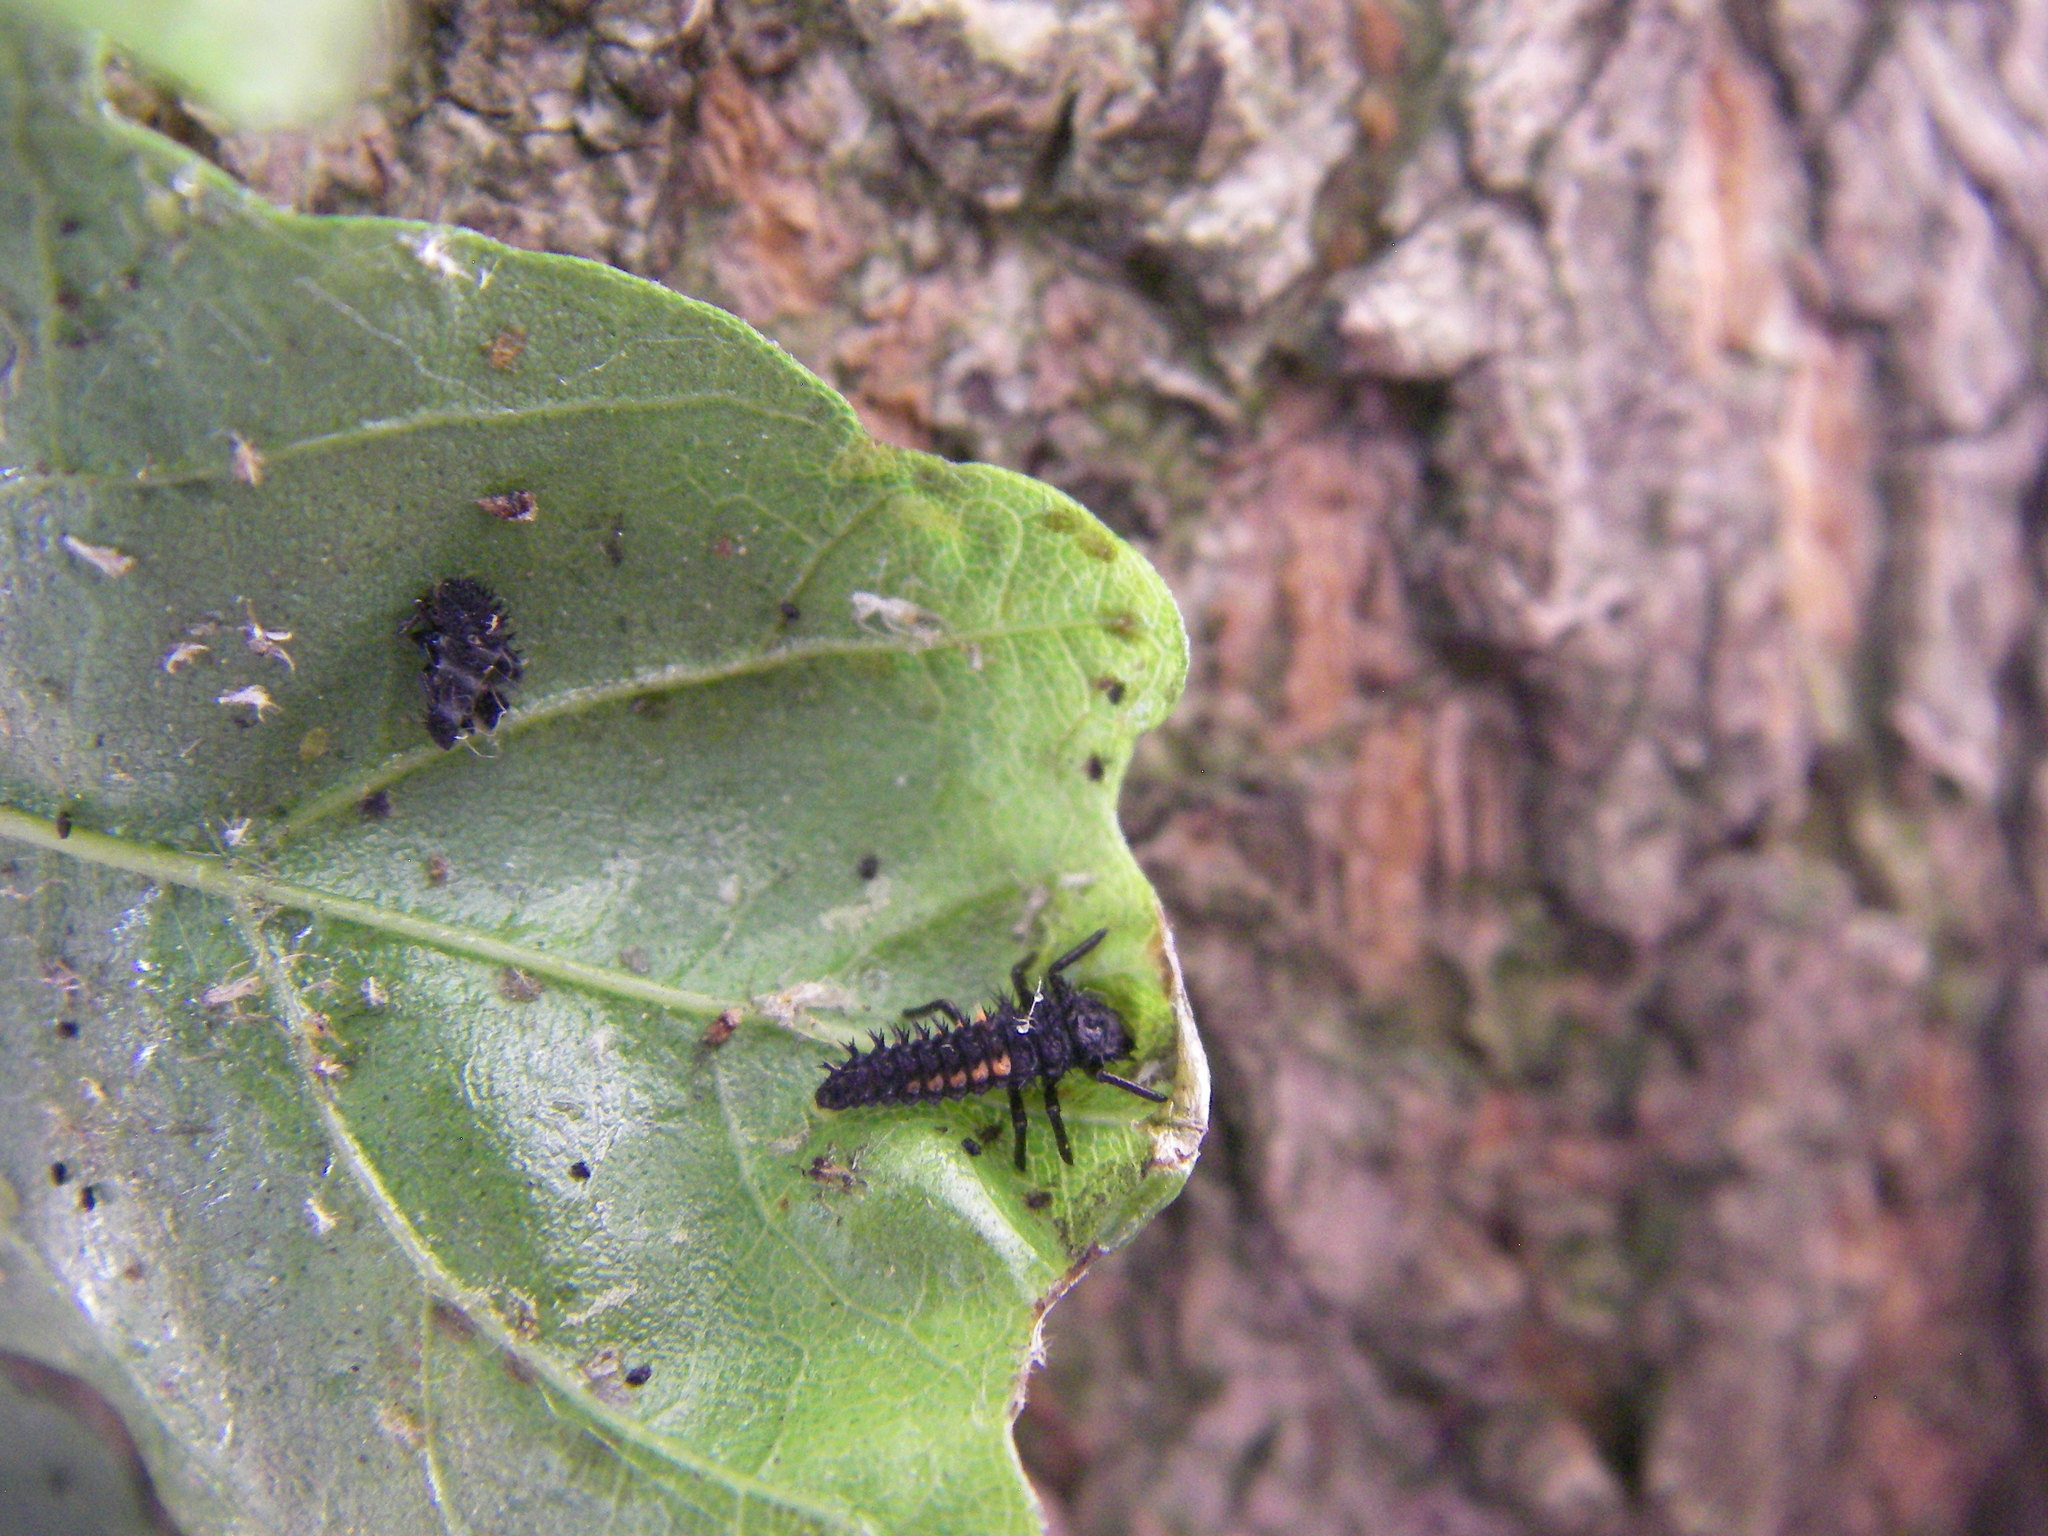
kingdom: Animalia
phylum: Arthropoda
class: Insecta
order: Coleoptera
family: Coccinellidae
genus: Harmonia
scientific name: Harmonia axyridis
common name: Harlequin ladybird
